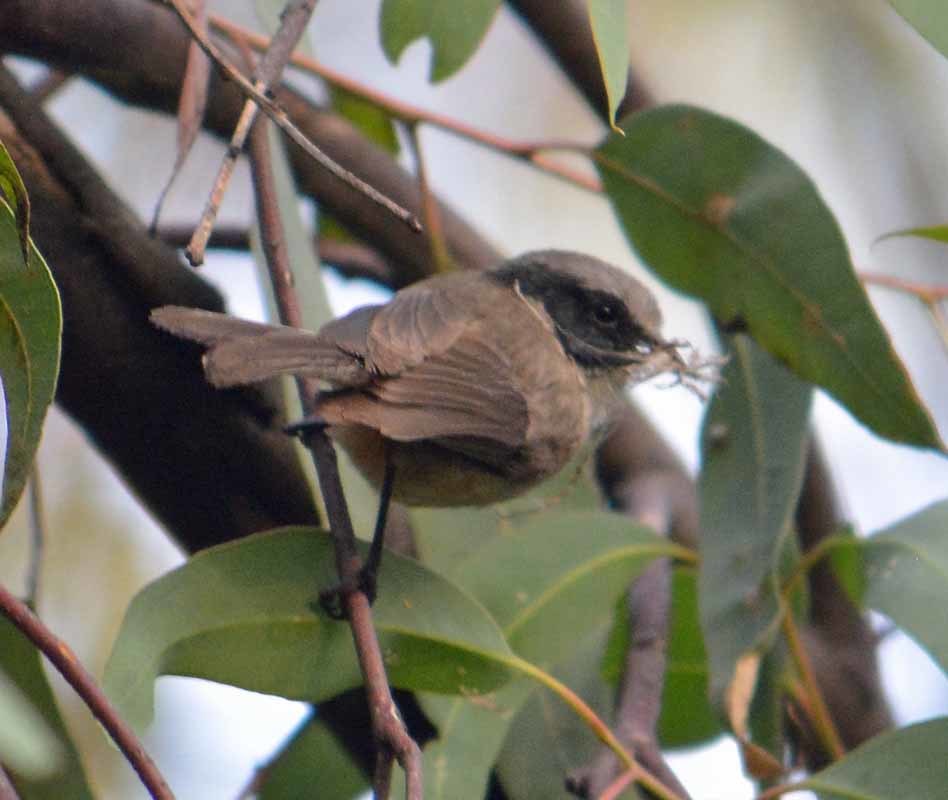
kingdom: Animalia
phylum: Chordata
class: Aves
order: Passeriformes
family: Aegithalidae
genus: Psaltriparus
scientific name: Psaltriparus minimus
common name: American bushtit
